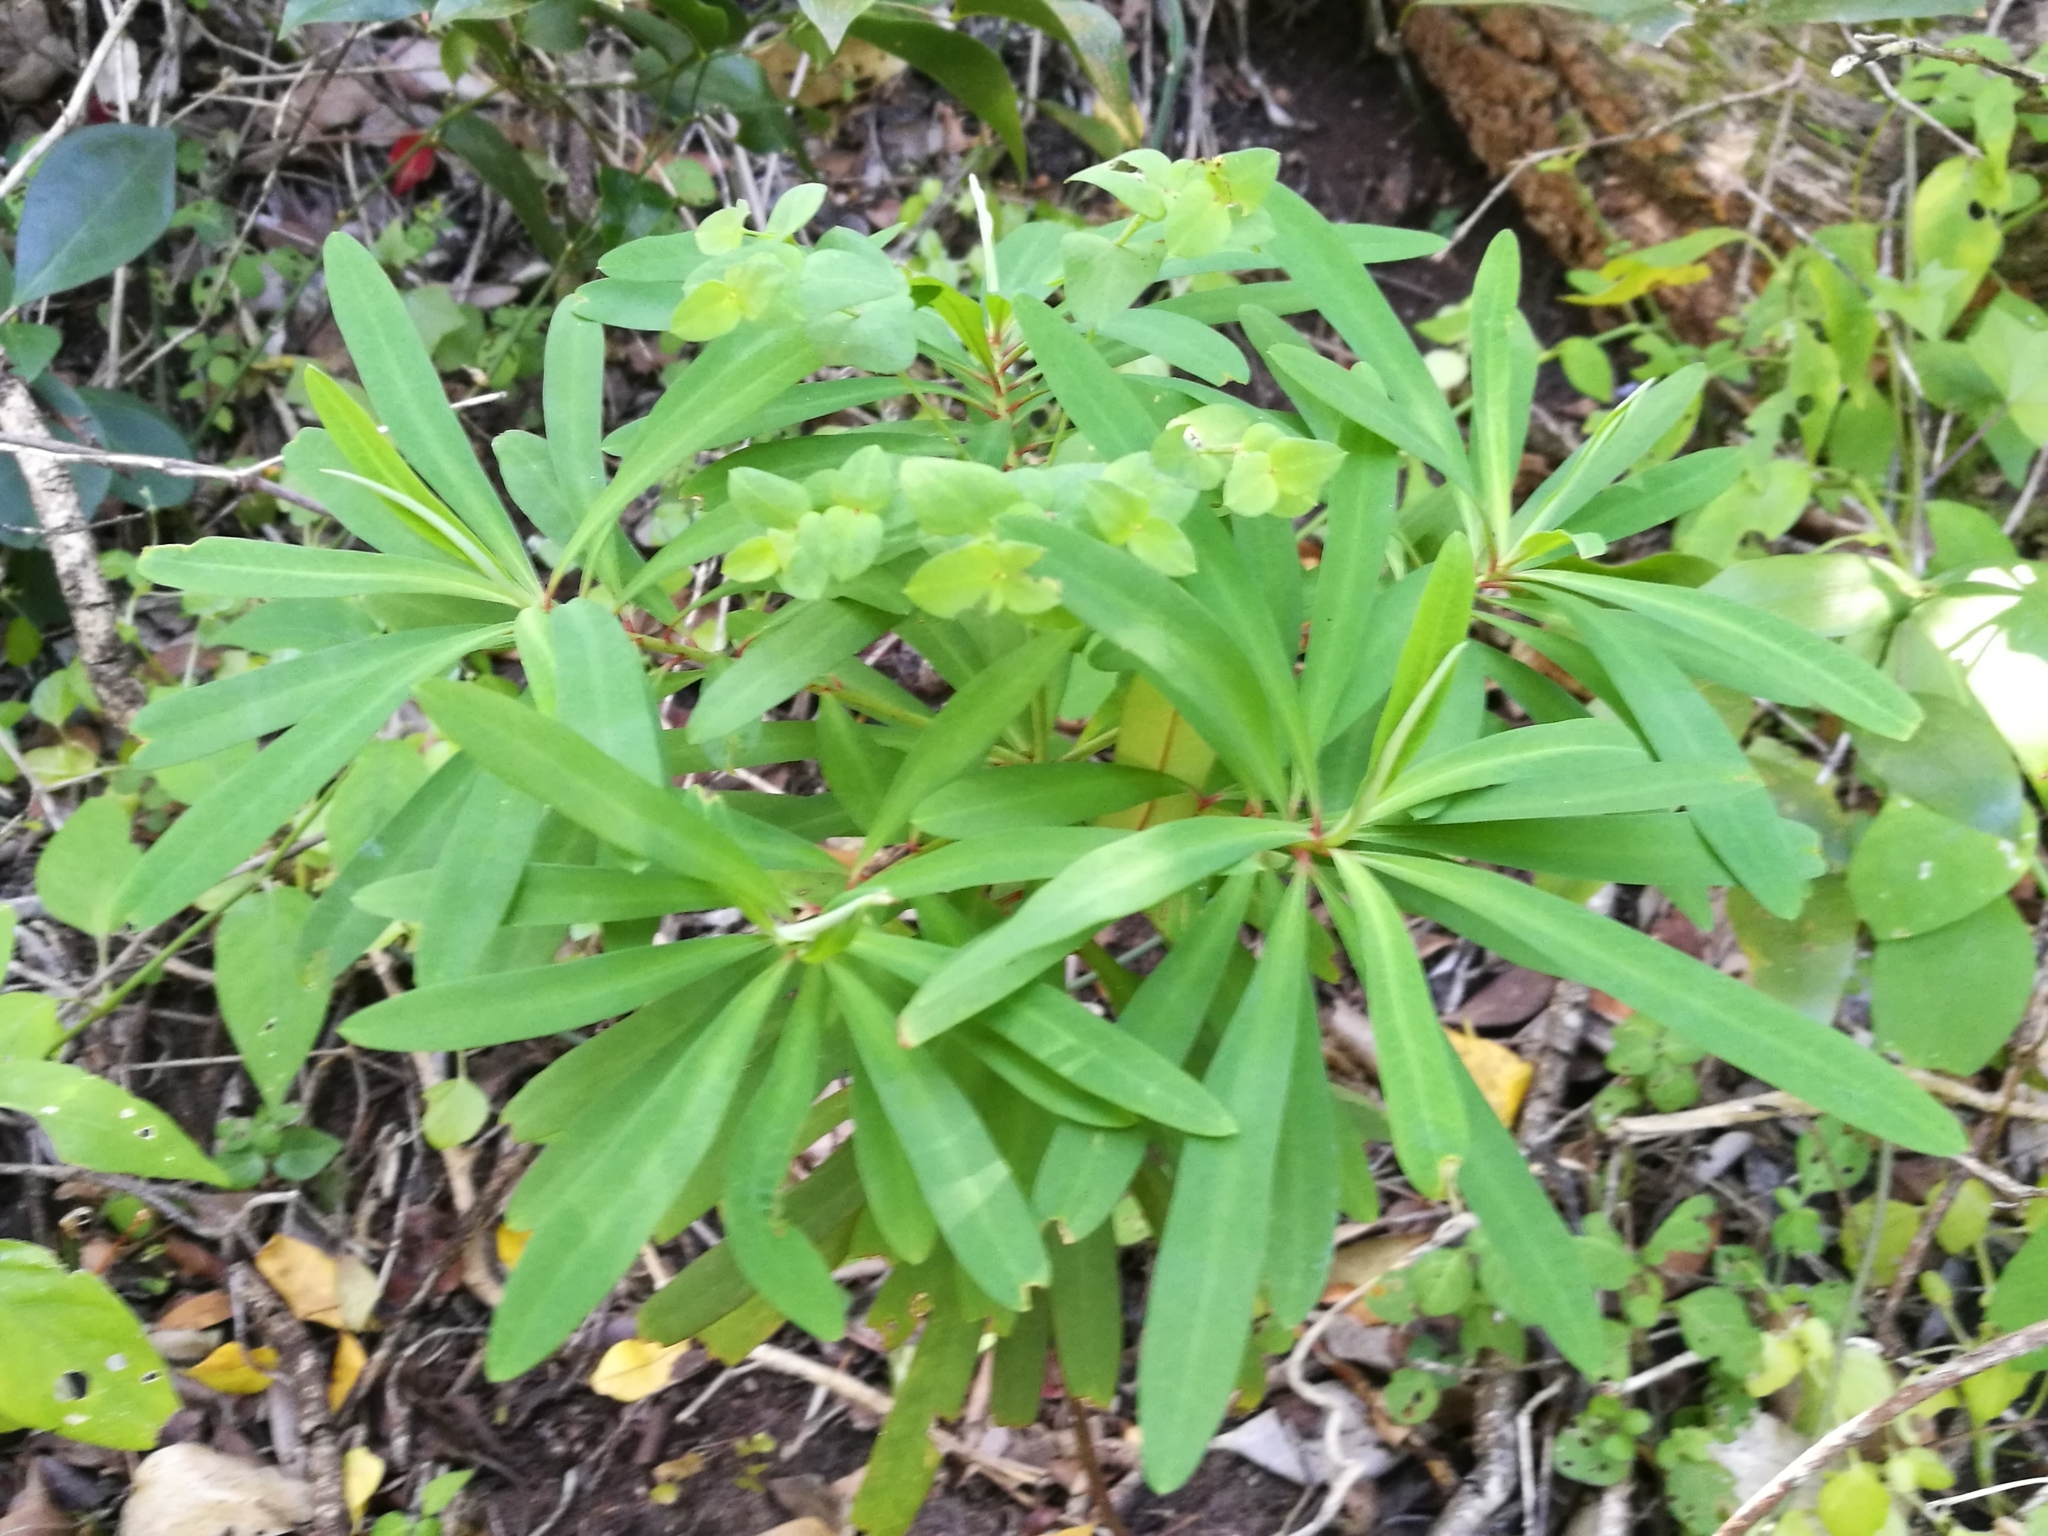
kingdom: Plantae
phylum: Tracheophyta
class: Magnoliopsida
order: Malpighiales
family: Euphorbiaceae
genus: Euphorbia
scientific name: Euphorbia kraussiana
